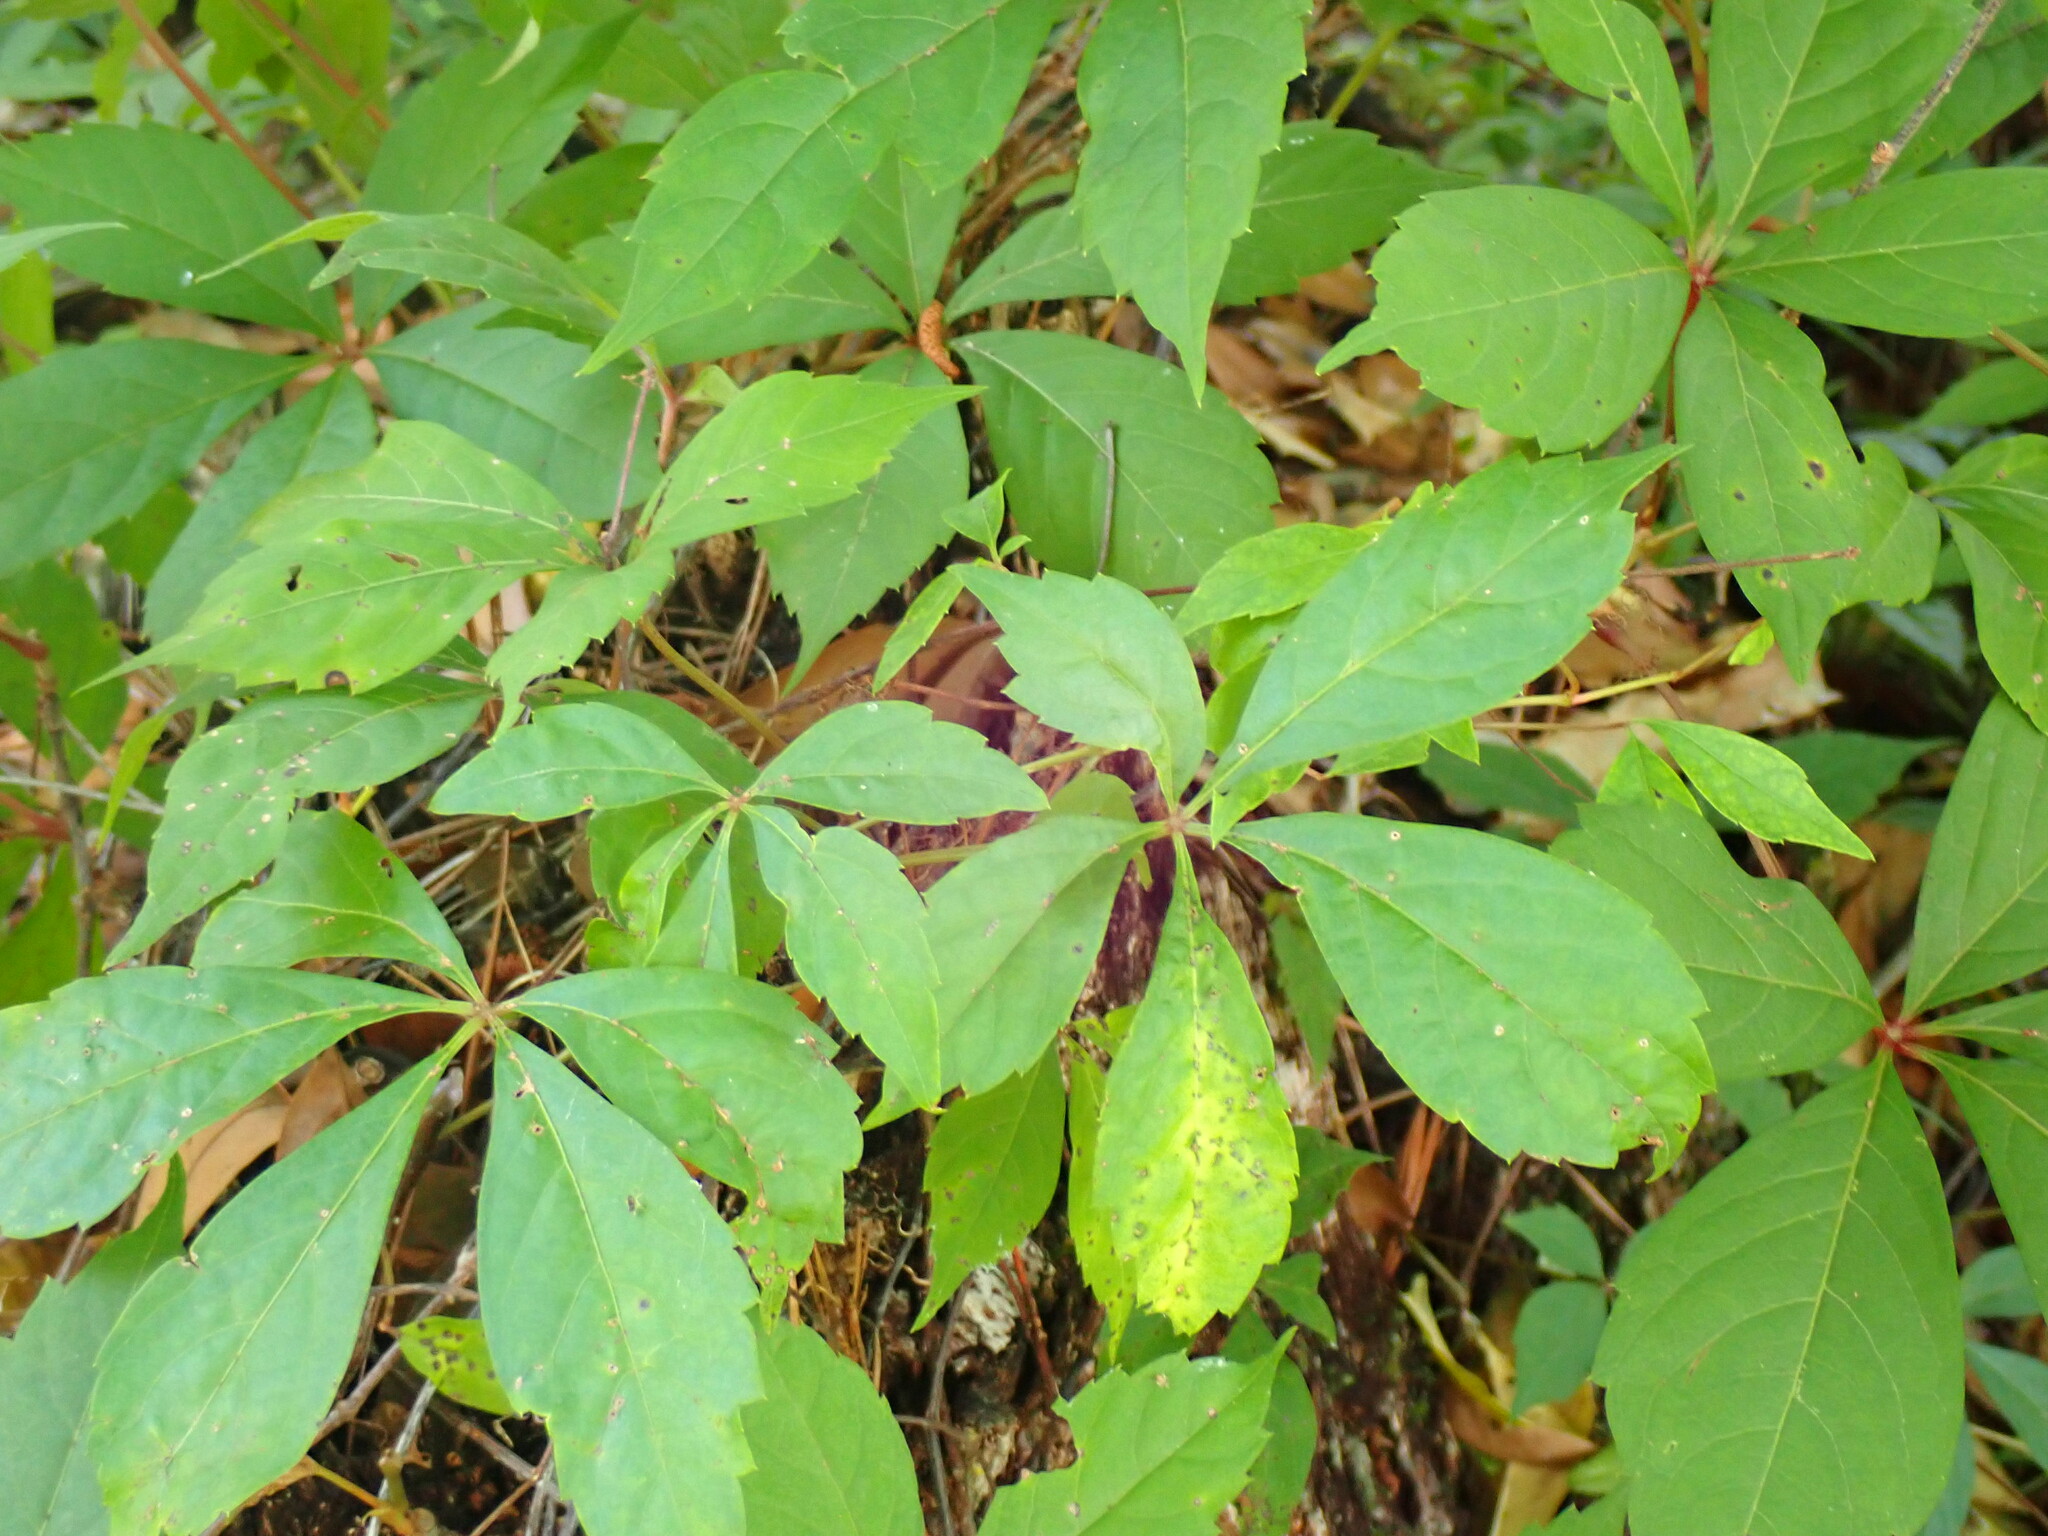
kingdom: Plantae
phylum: Tracheophyta
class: Magnoliopsida
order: Vitales
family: Vitaceae
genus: Parthenocissus
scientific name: Parthenocissus quinquefolia
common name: Virginia-creeper
